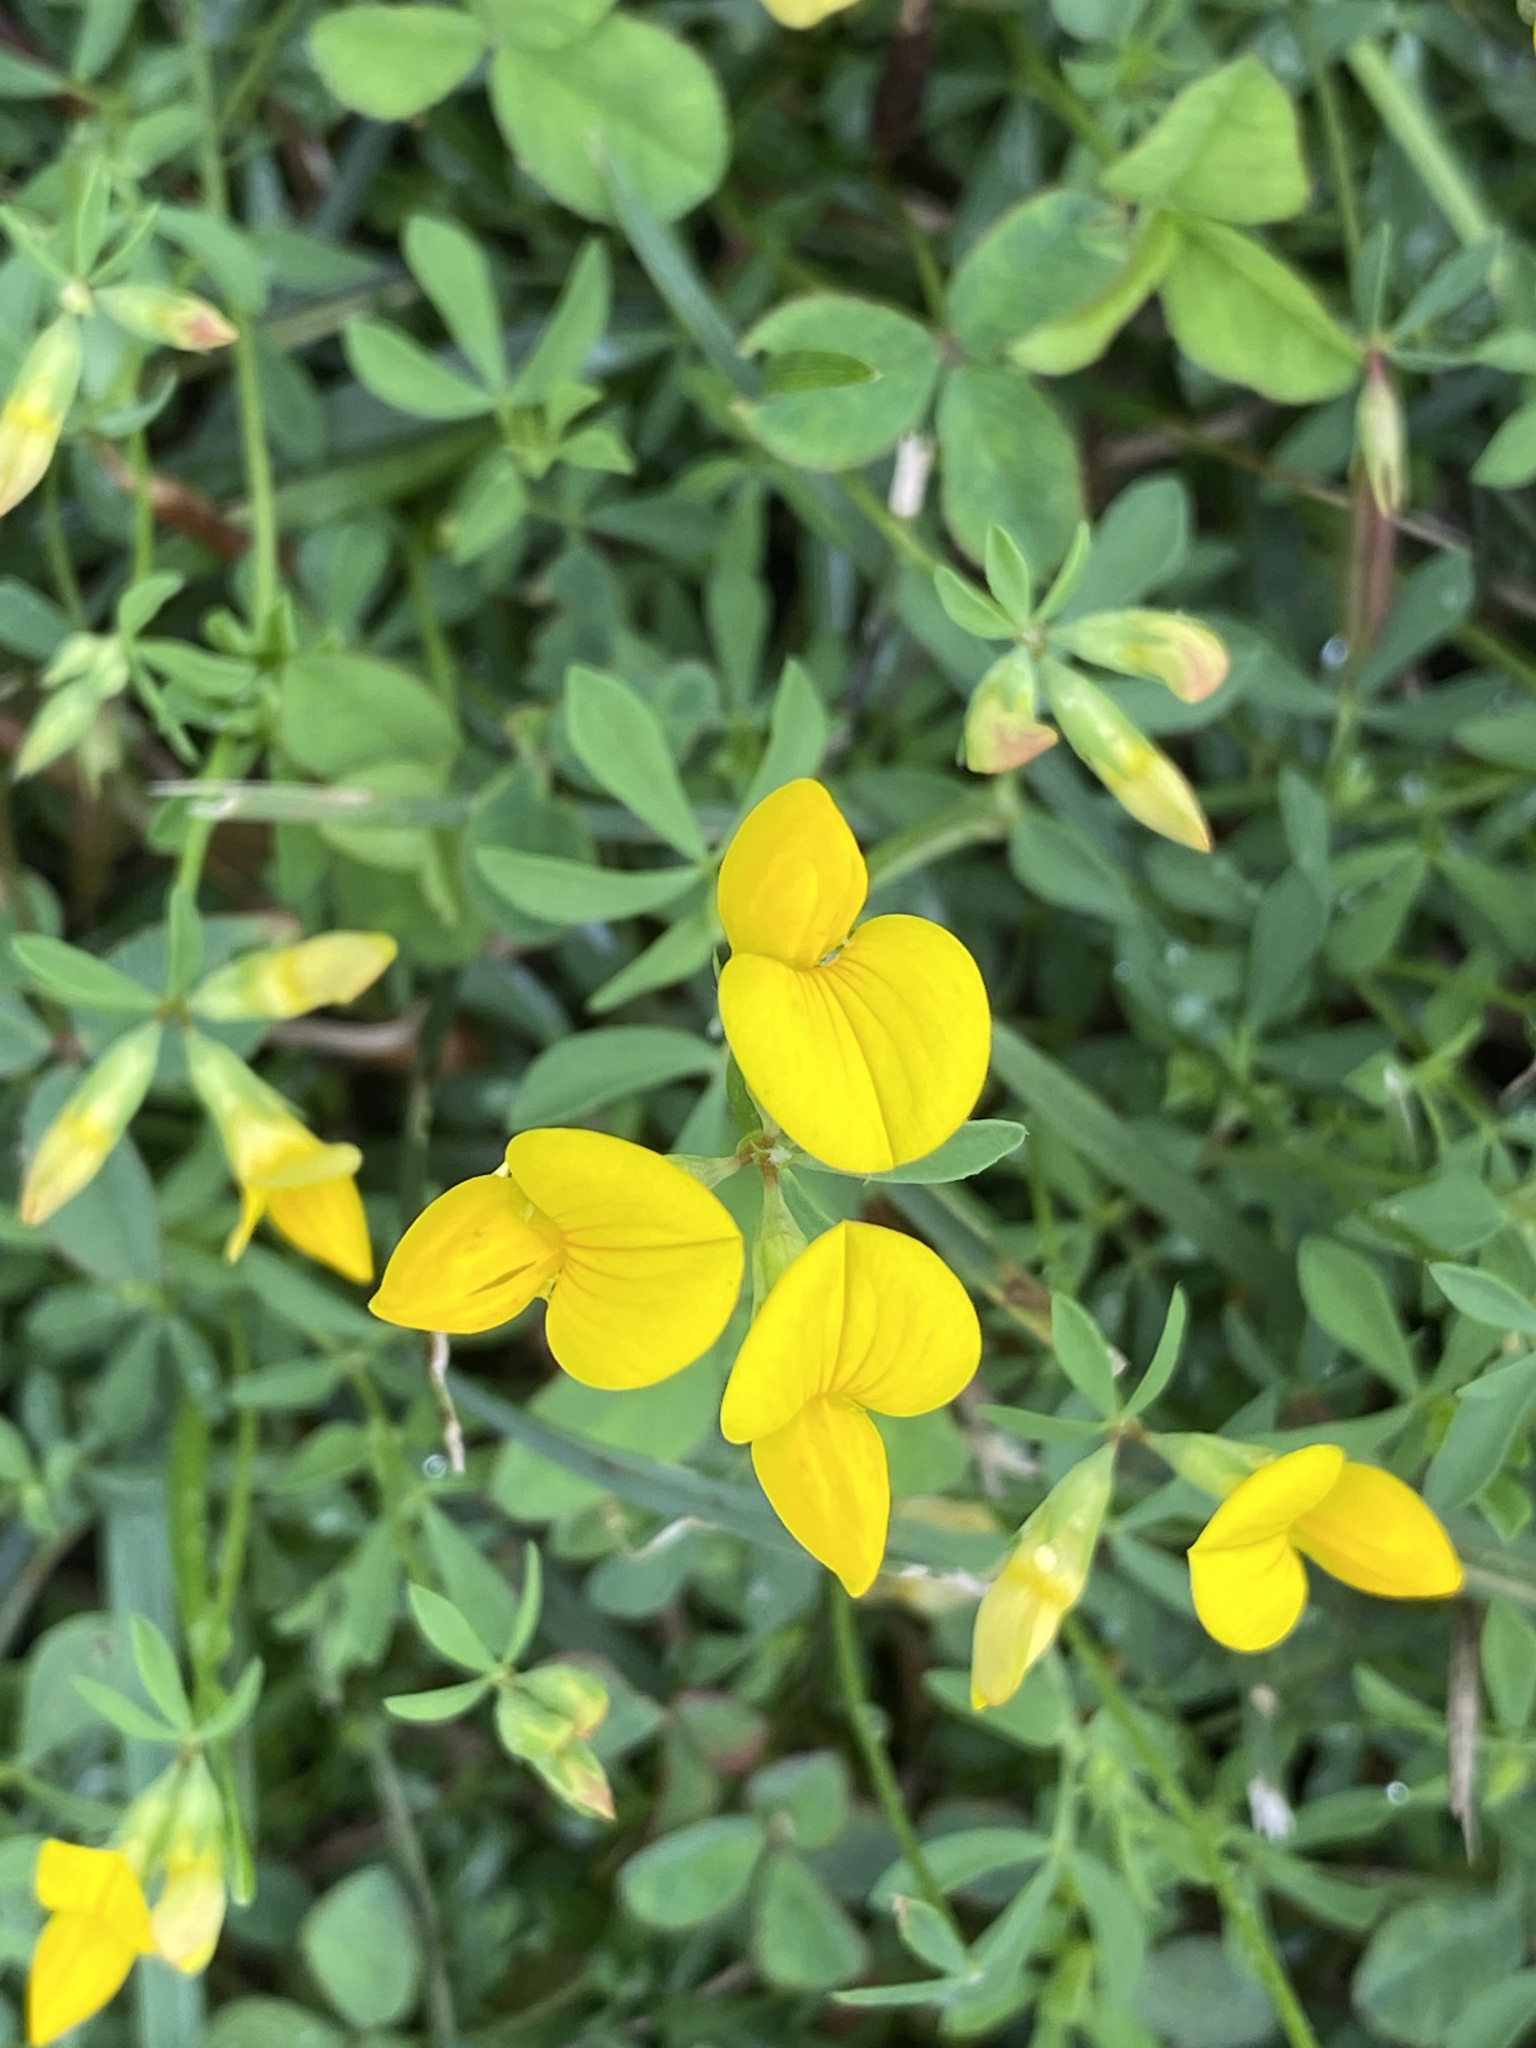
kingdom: Plantae
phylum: Tracheophyta
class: Magnoliopsida
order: Fabales
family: Fabaceae
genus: Lotus
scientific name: Lotus corniculatus
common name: Common bird's-foot-trefoil
